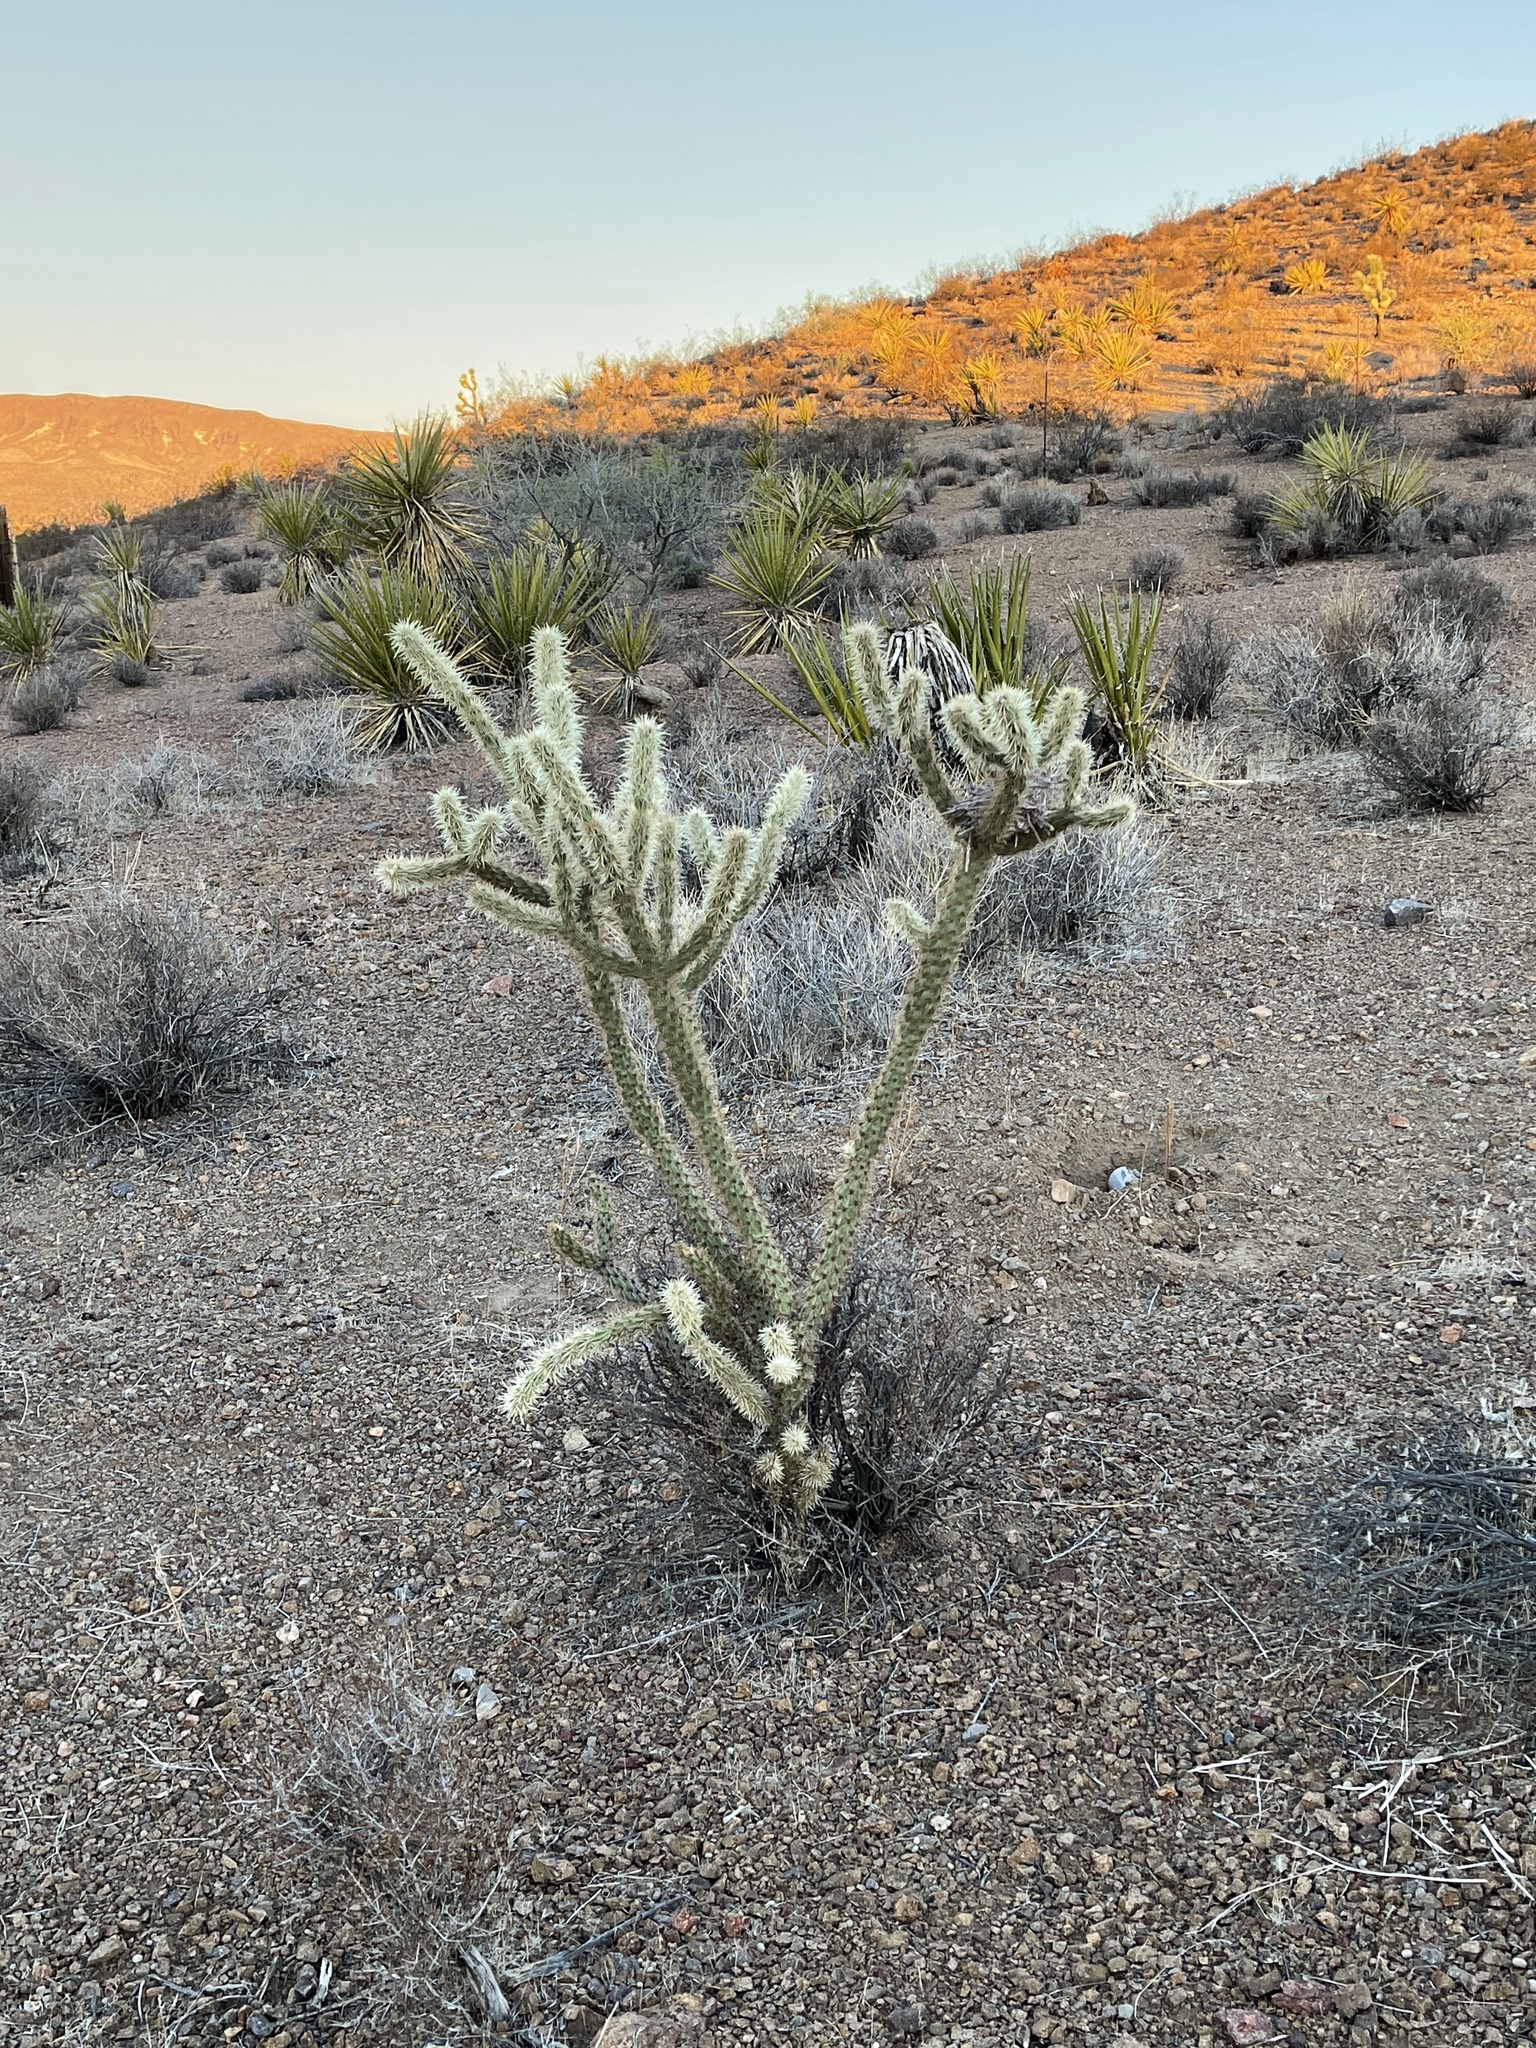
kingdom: Plantae
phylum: Tracheophyta
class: Magnoliopsida
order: Caryophyllales
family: Cactaceae
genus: Cylindropuntia
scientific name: Cylindropuntia acanthocarpa
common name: Buckhorn cholla
